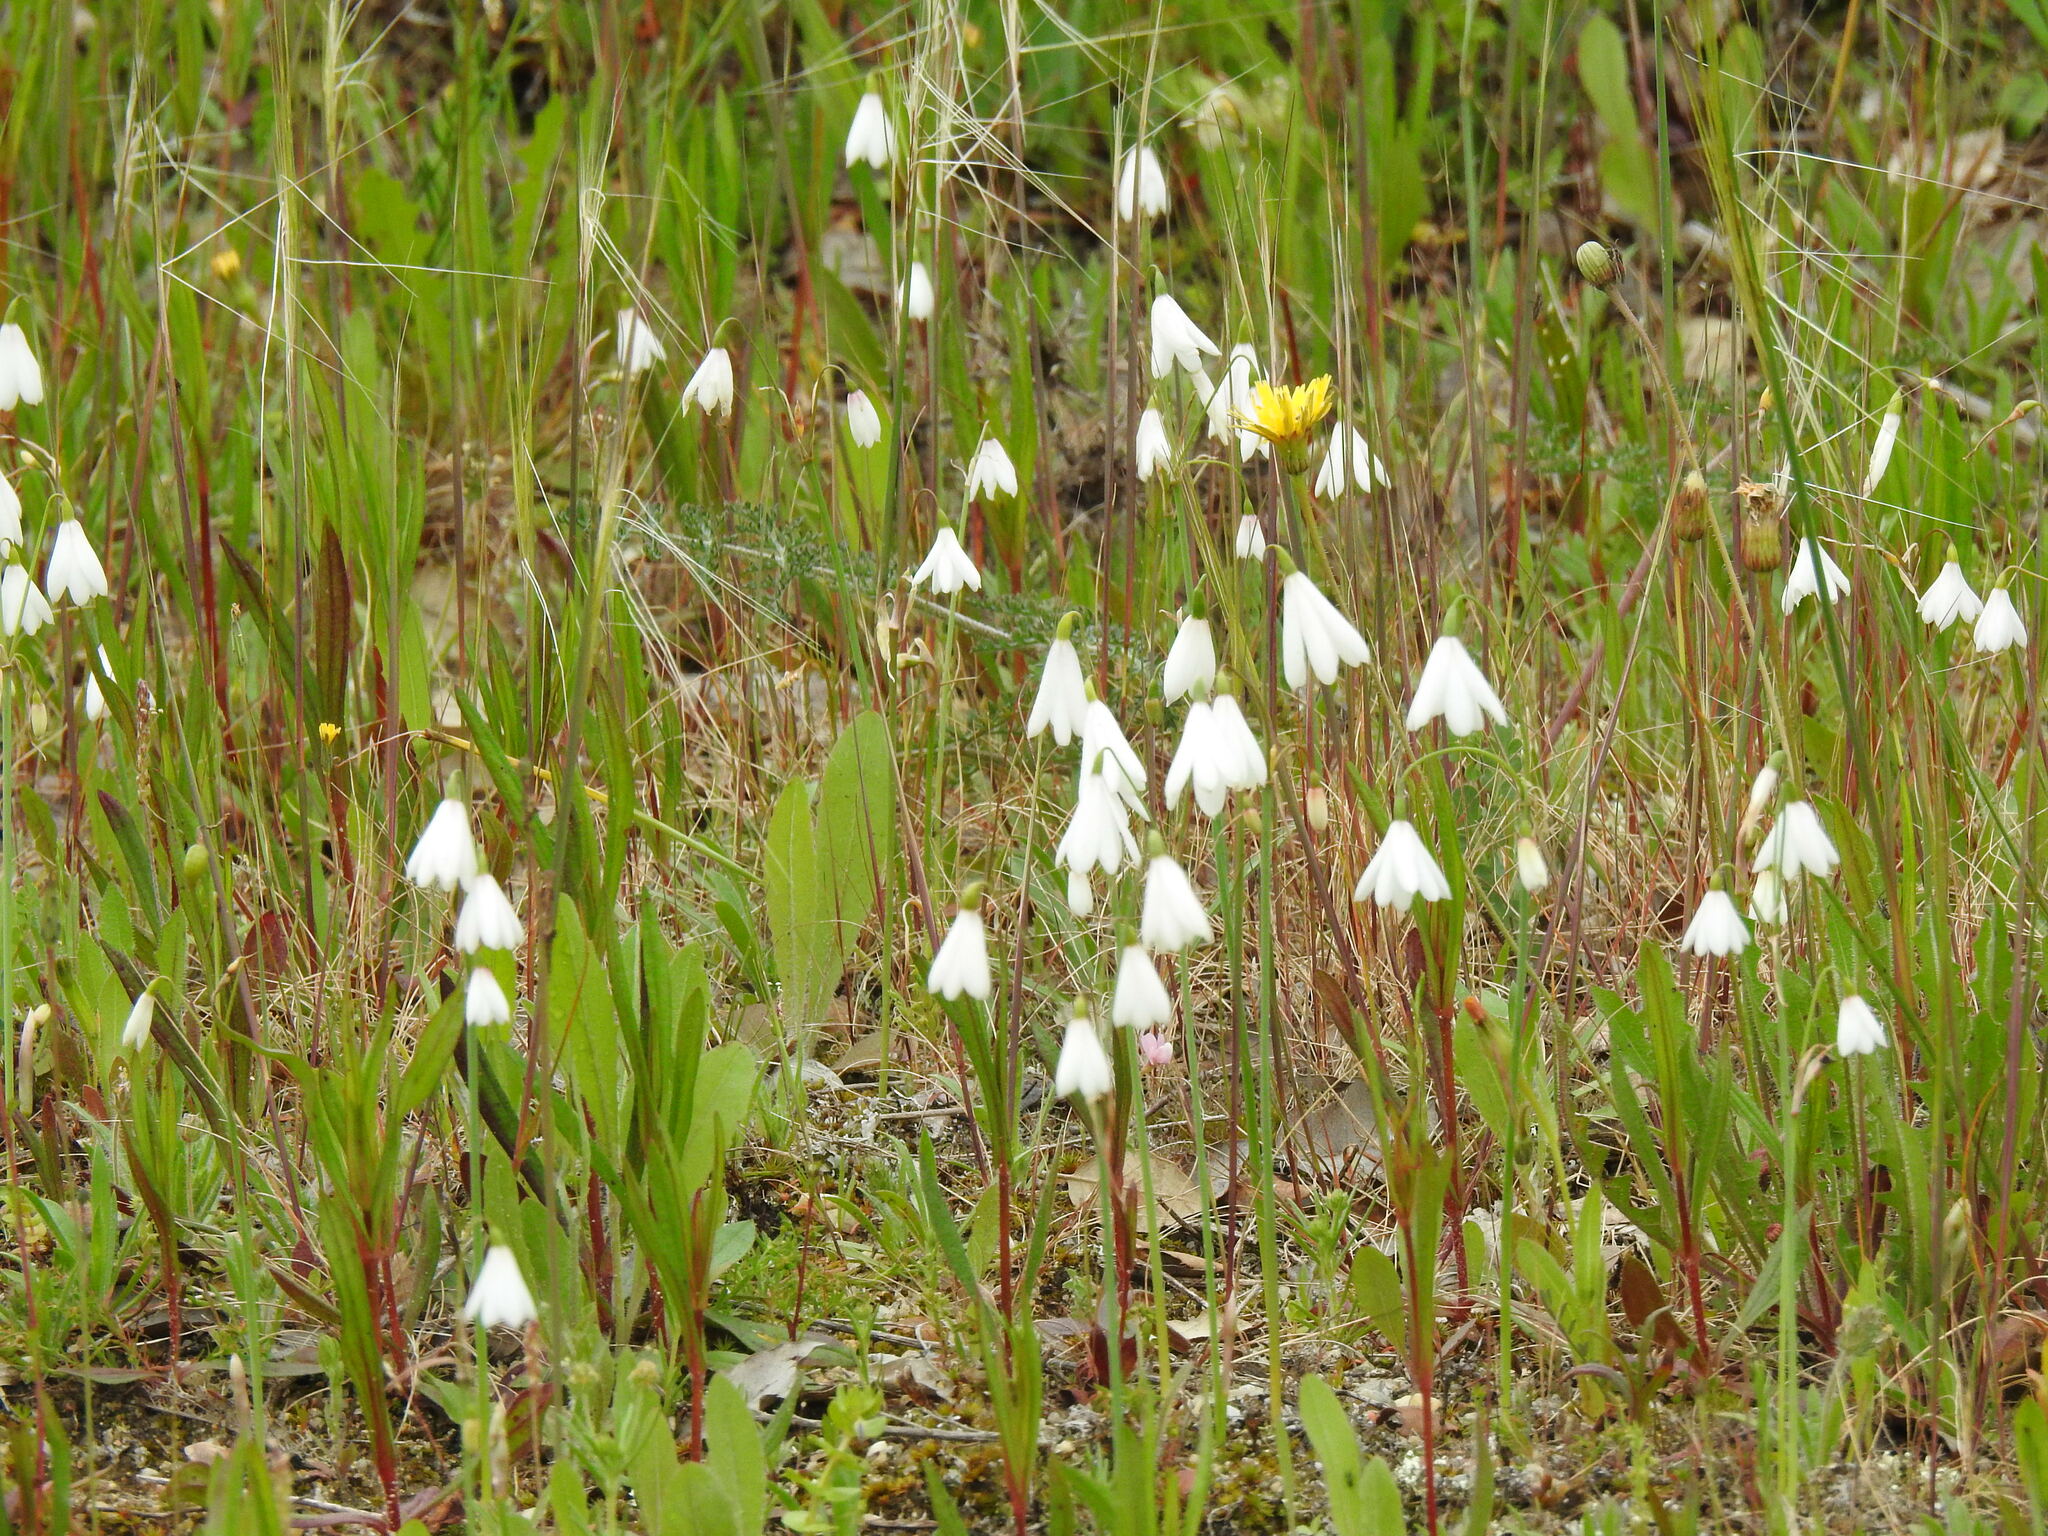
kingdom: Plantae
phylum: Tracheophyta
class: Liliopsida
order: Asparagales
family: Amaryllidaceae
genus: Acis
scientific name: Acis trichophylla
